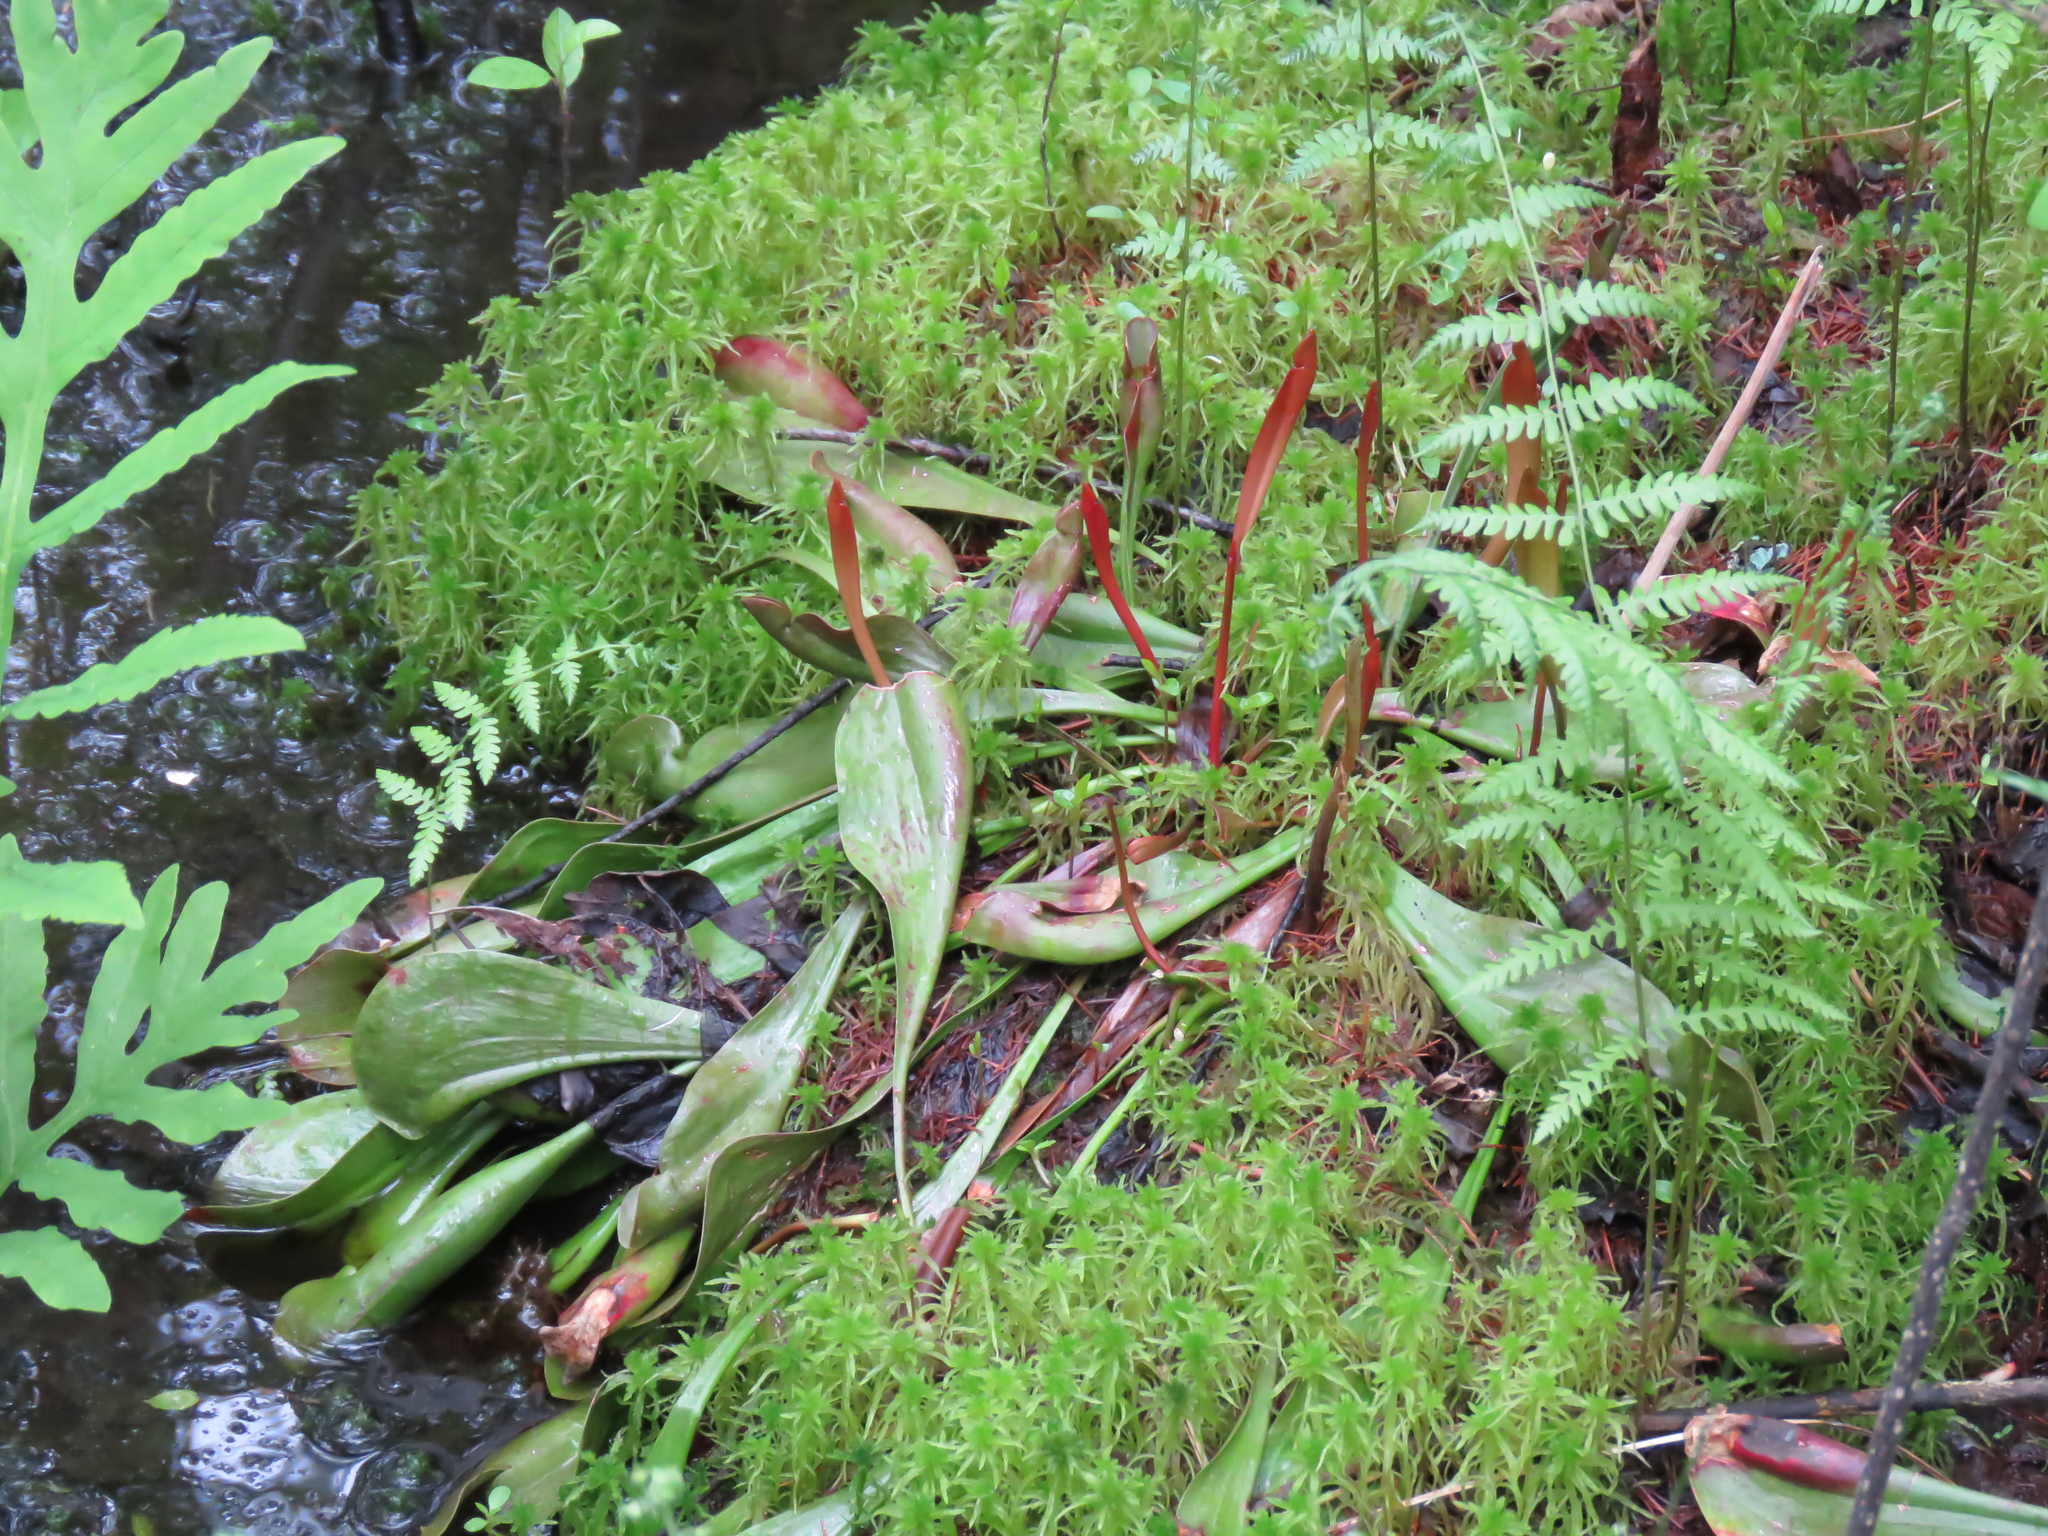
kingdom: Plantae
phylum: Tracheophyta
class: Magnoliopsida
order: Ericales
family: Sarraceniaceae
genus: Sarracenia
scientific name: Sarracenia purpurea
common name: Pitcherplant
